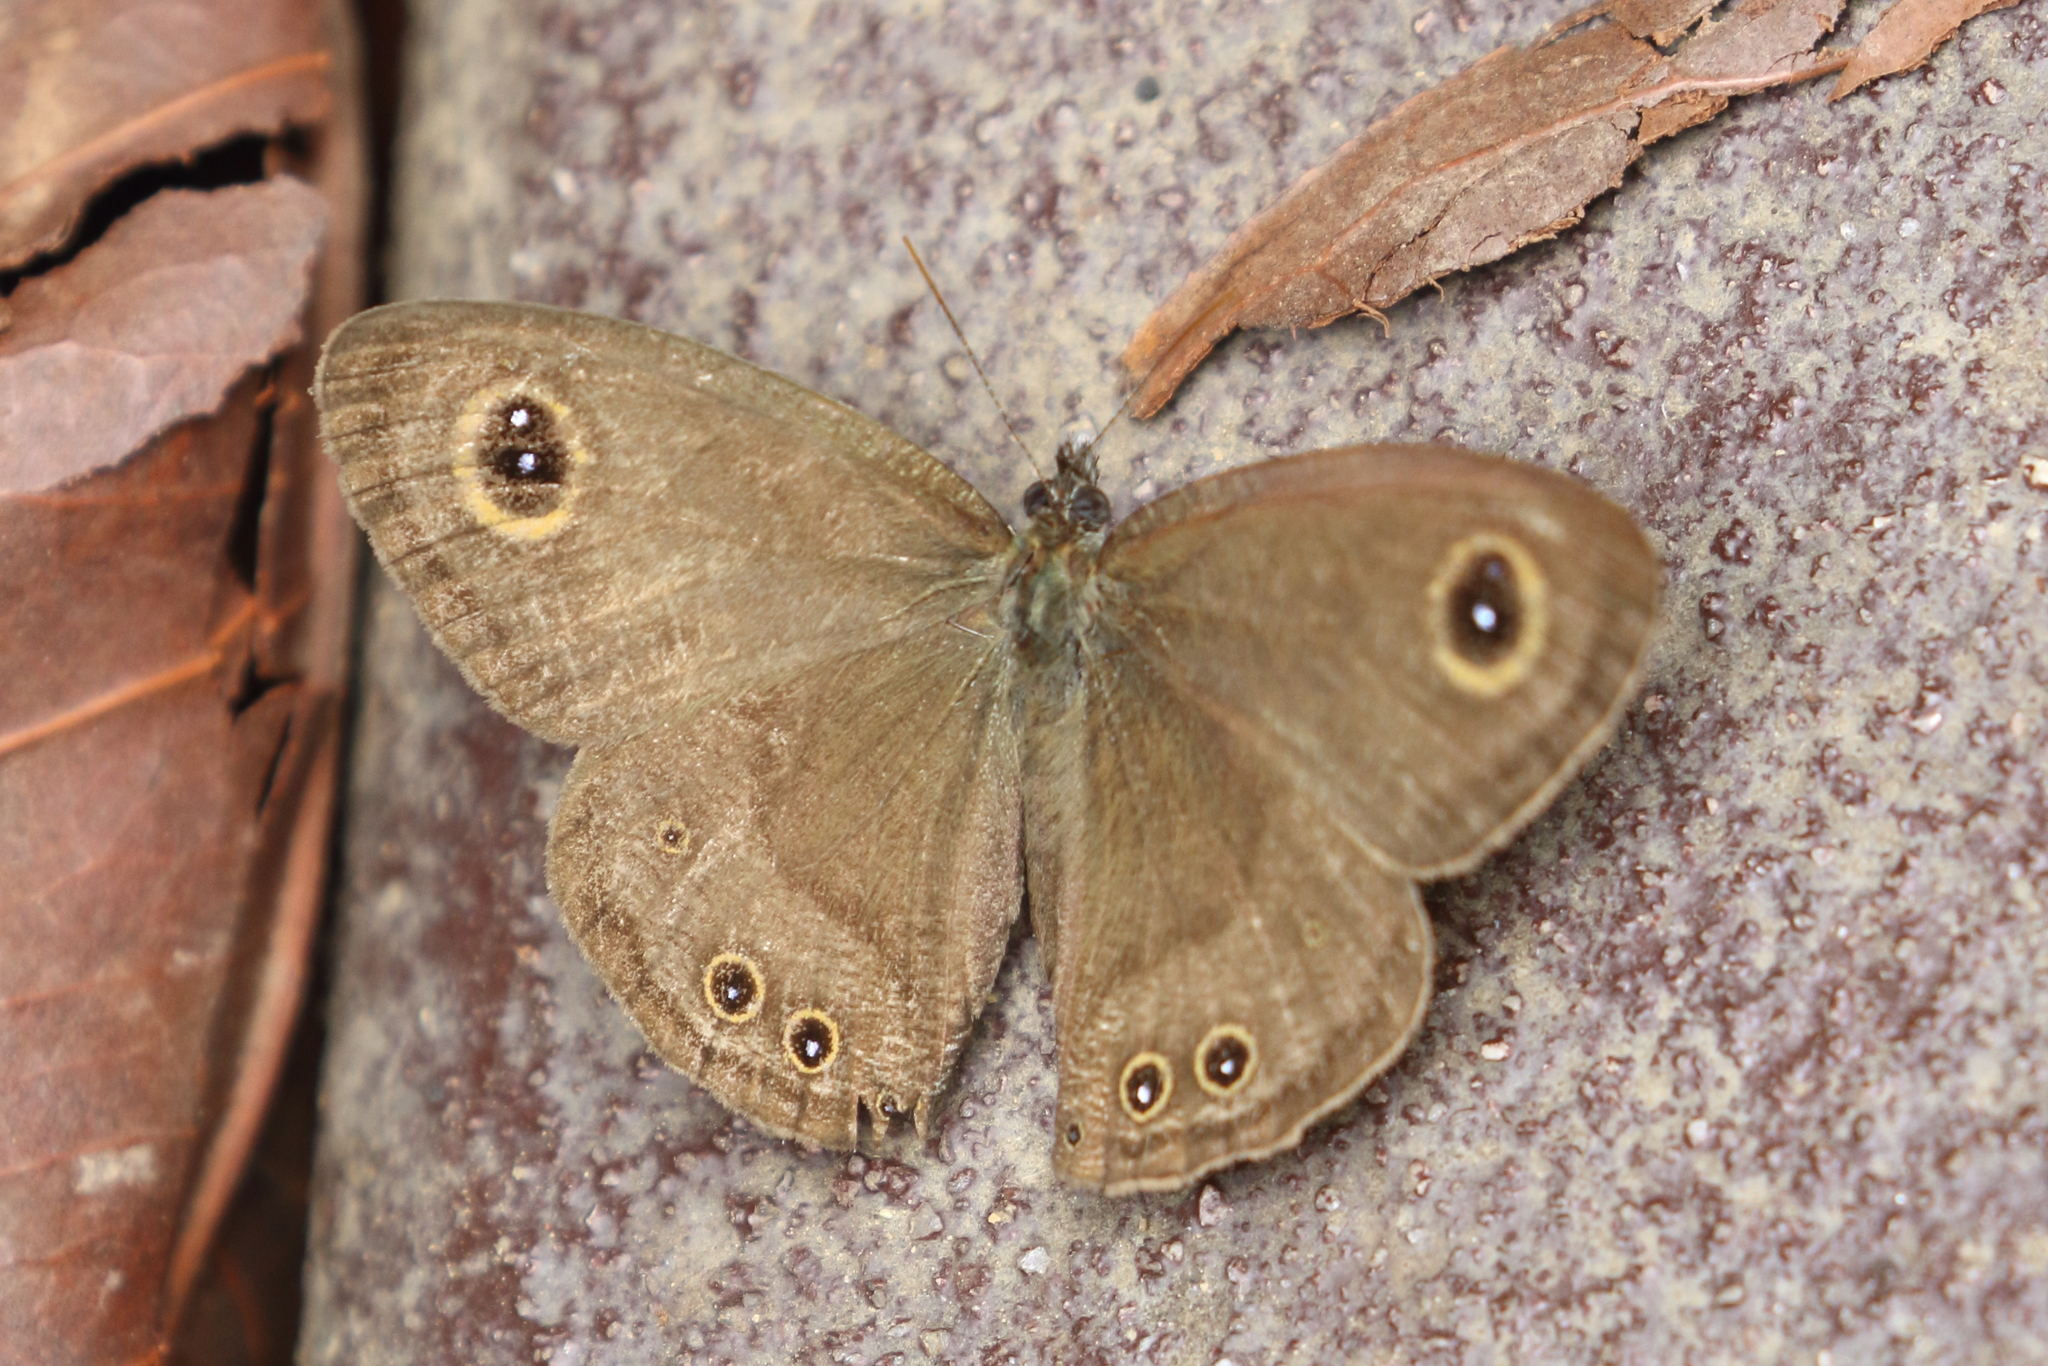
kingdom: Animalia
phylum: Arthropoda
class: Insecta
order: Lepidoptera
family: Nymphalidae
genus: Ypthima
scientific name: Ypthima baldus
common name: Common five-ring
